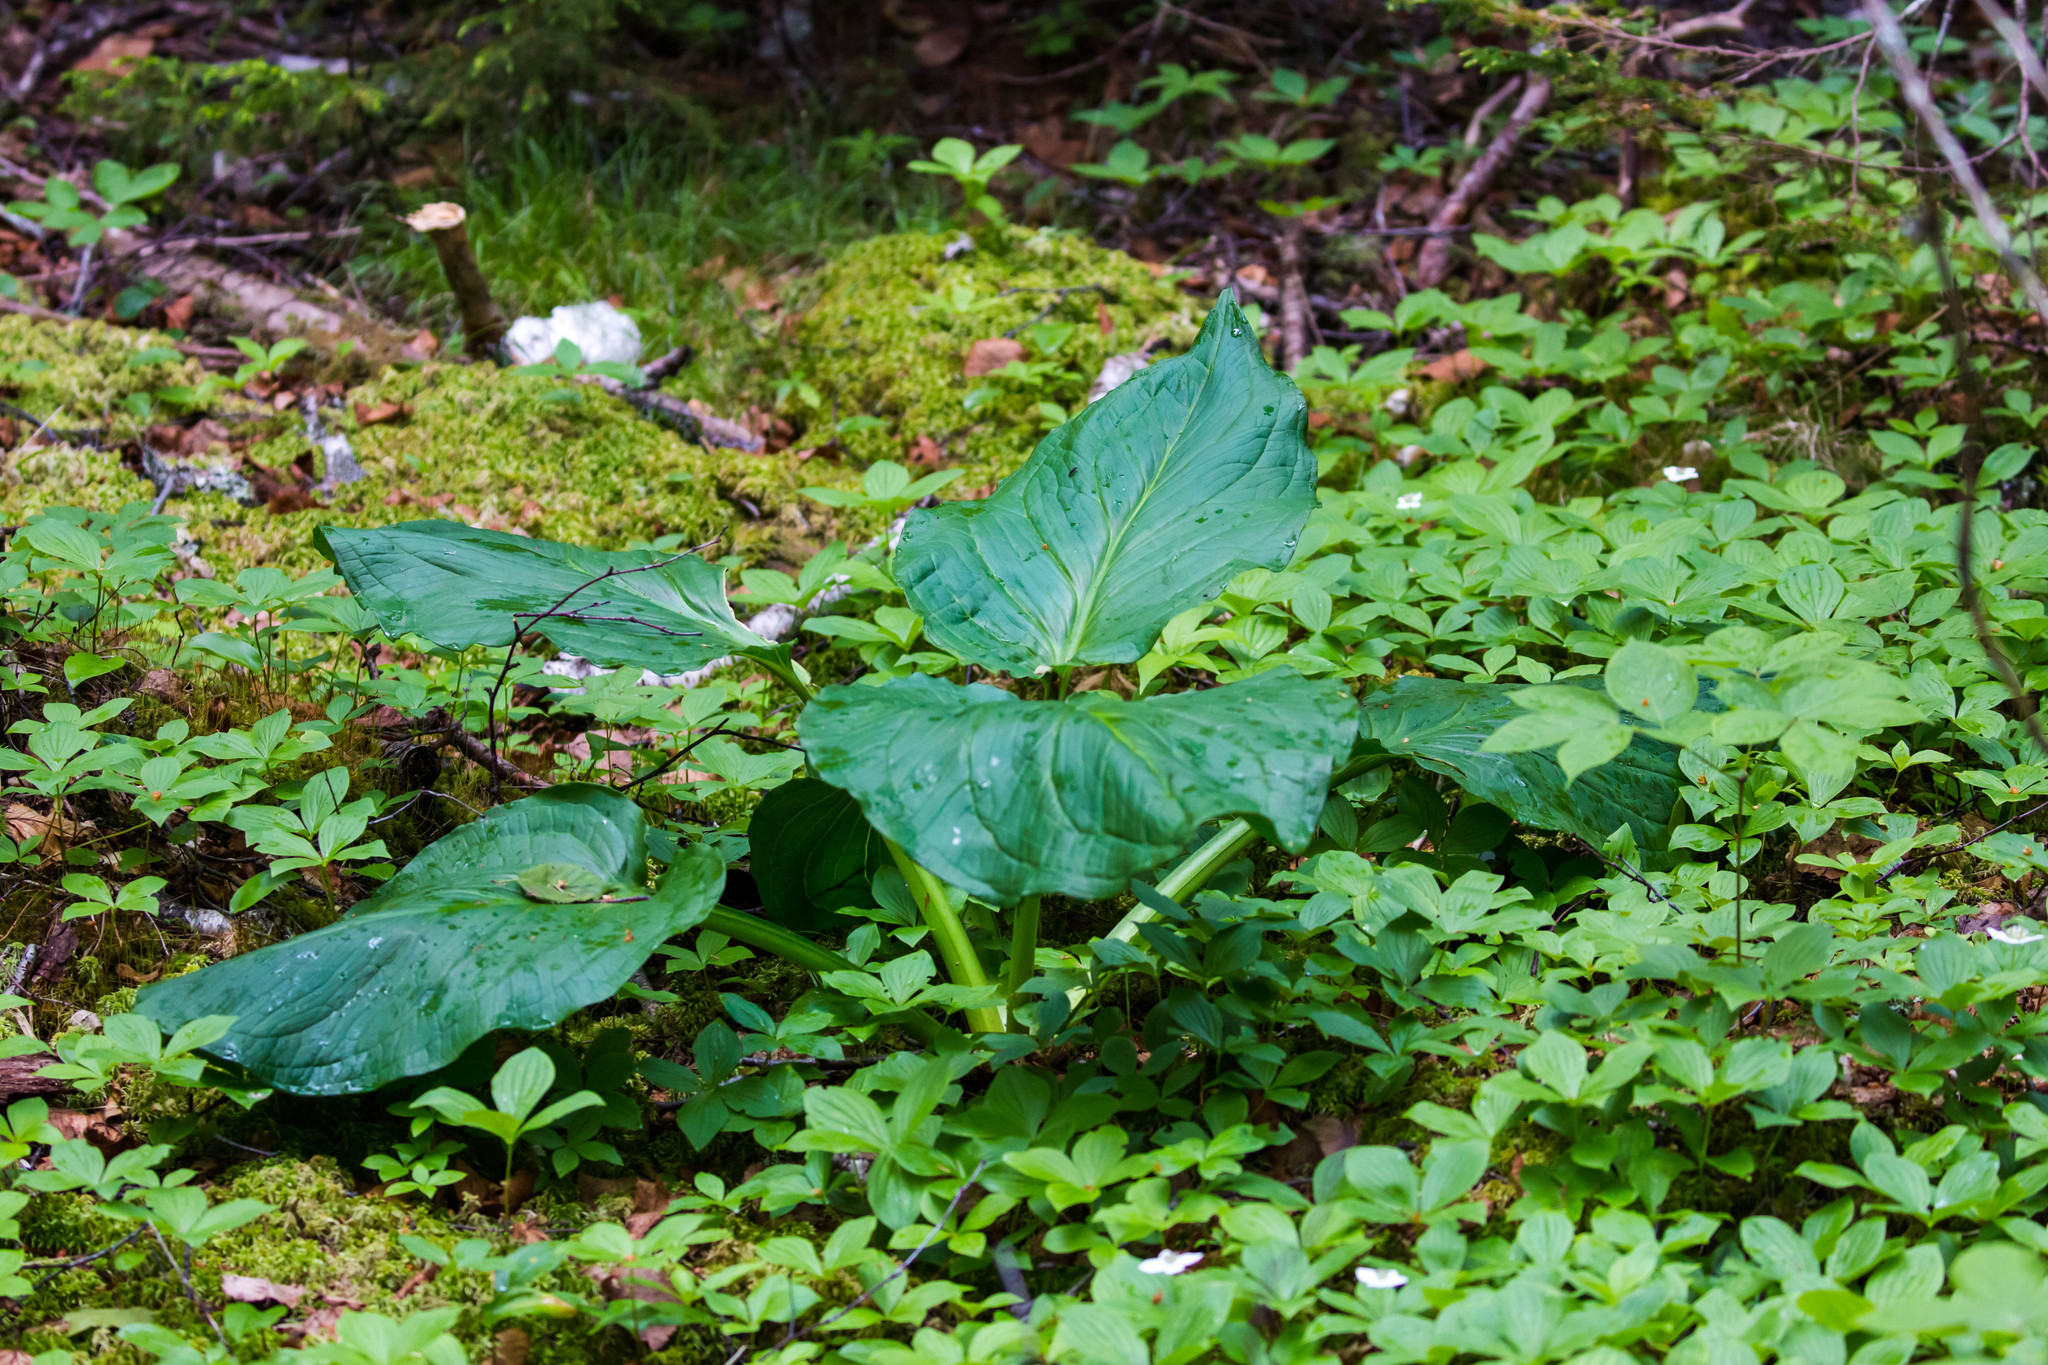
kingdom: Plantae
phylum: Tracheophyta
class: Liliopsida
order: Alismatales
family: Araceae
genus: Symplocarpus
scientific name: Symplocarpus foetidus
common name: Eastern skunk cabbage
